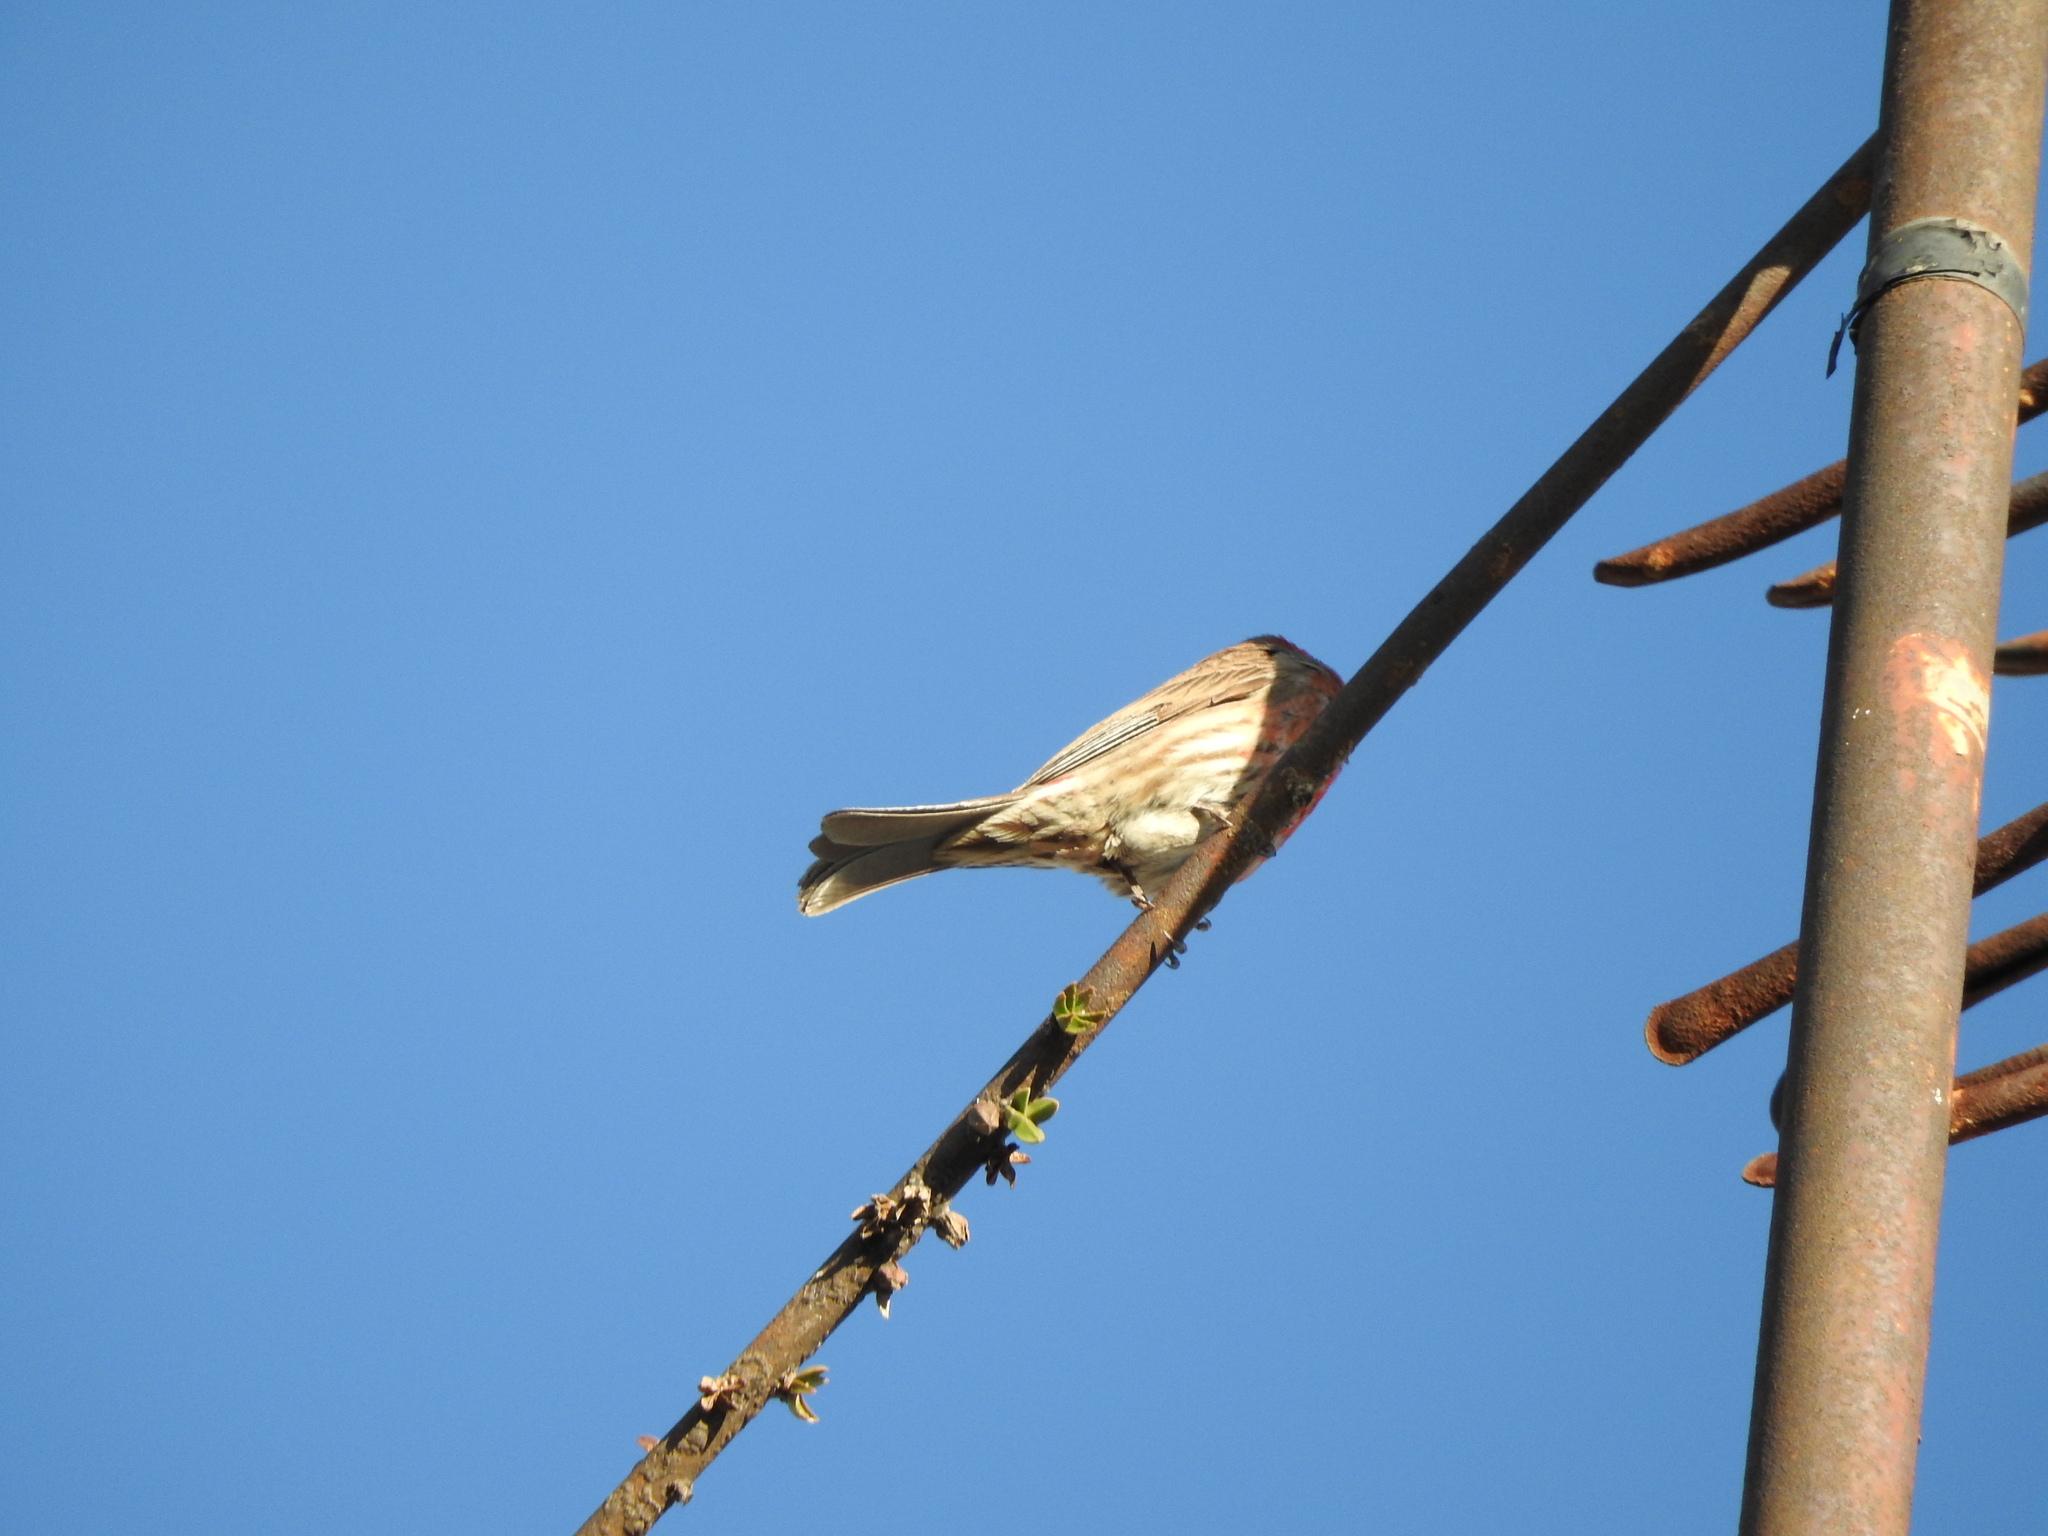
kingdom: Animalia
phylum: Chordata
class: Aves
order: Passeriformes
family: Fringillidae
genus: Haemorhous
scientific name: Haemorhous mexicanus
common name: House finch
